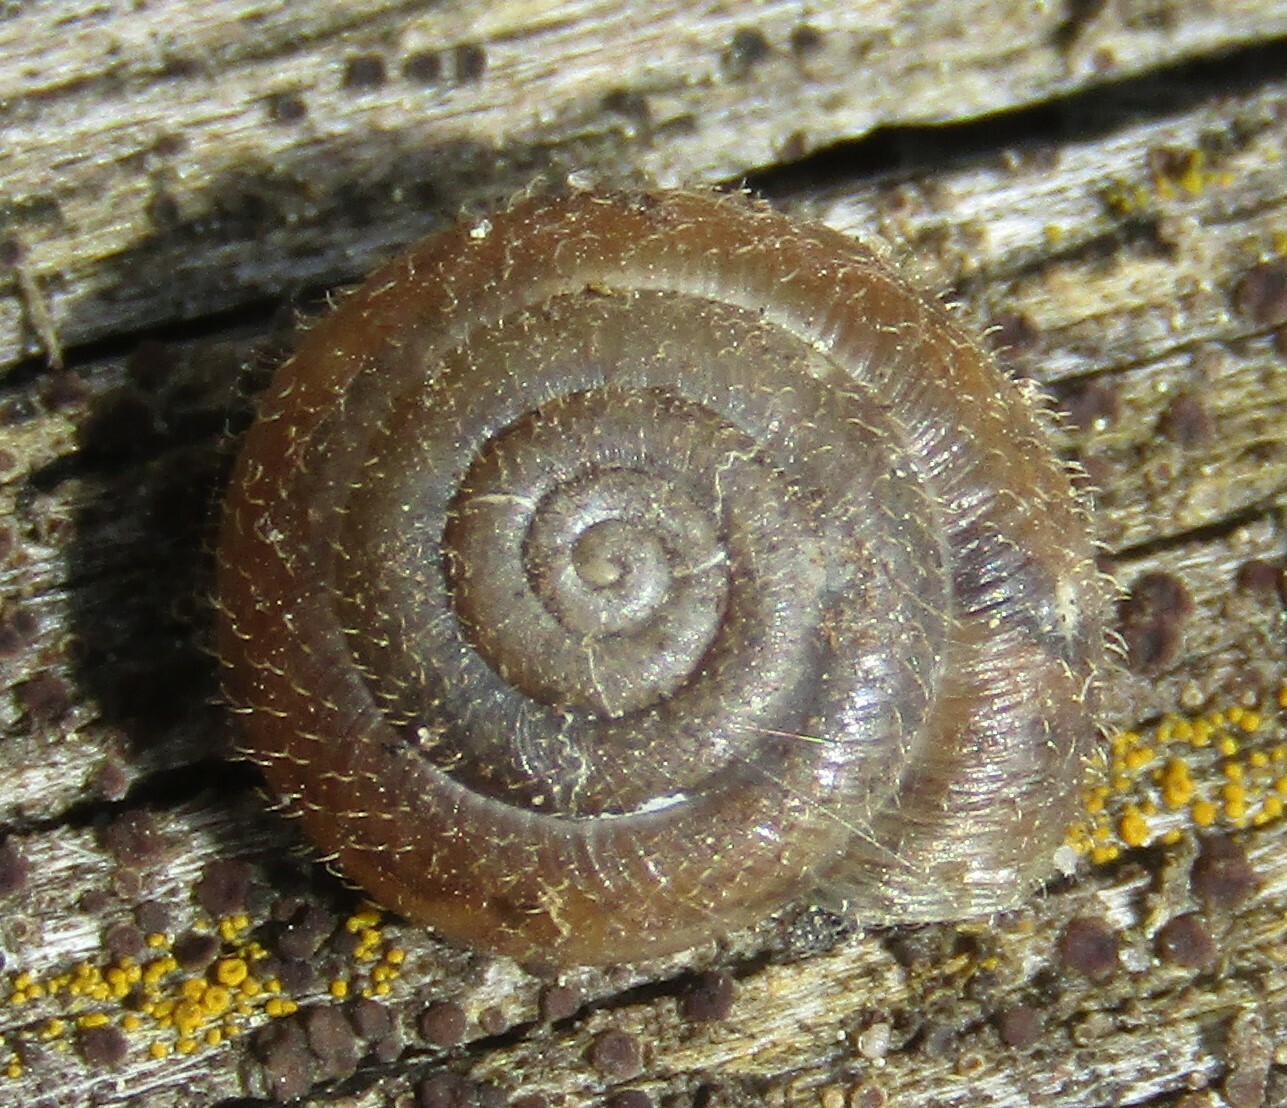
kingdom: Animalia
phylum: Mollusca
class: Gastropoda
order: Stylommatophora
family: Hygromiidae
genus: Trochulus
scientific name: Trochulus hispidus
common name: Hairy snail
